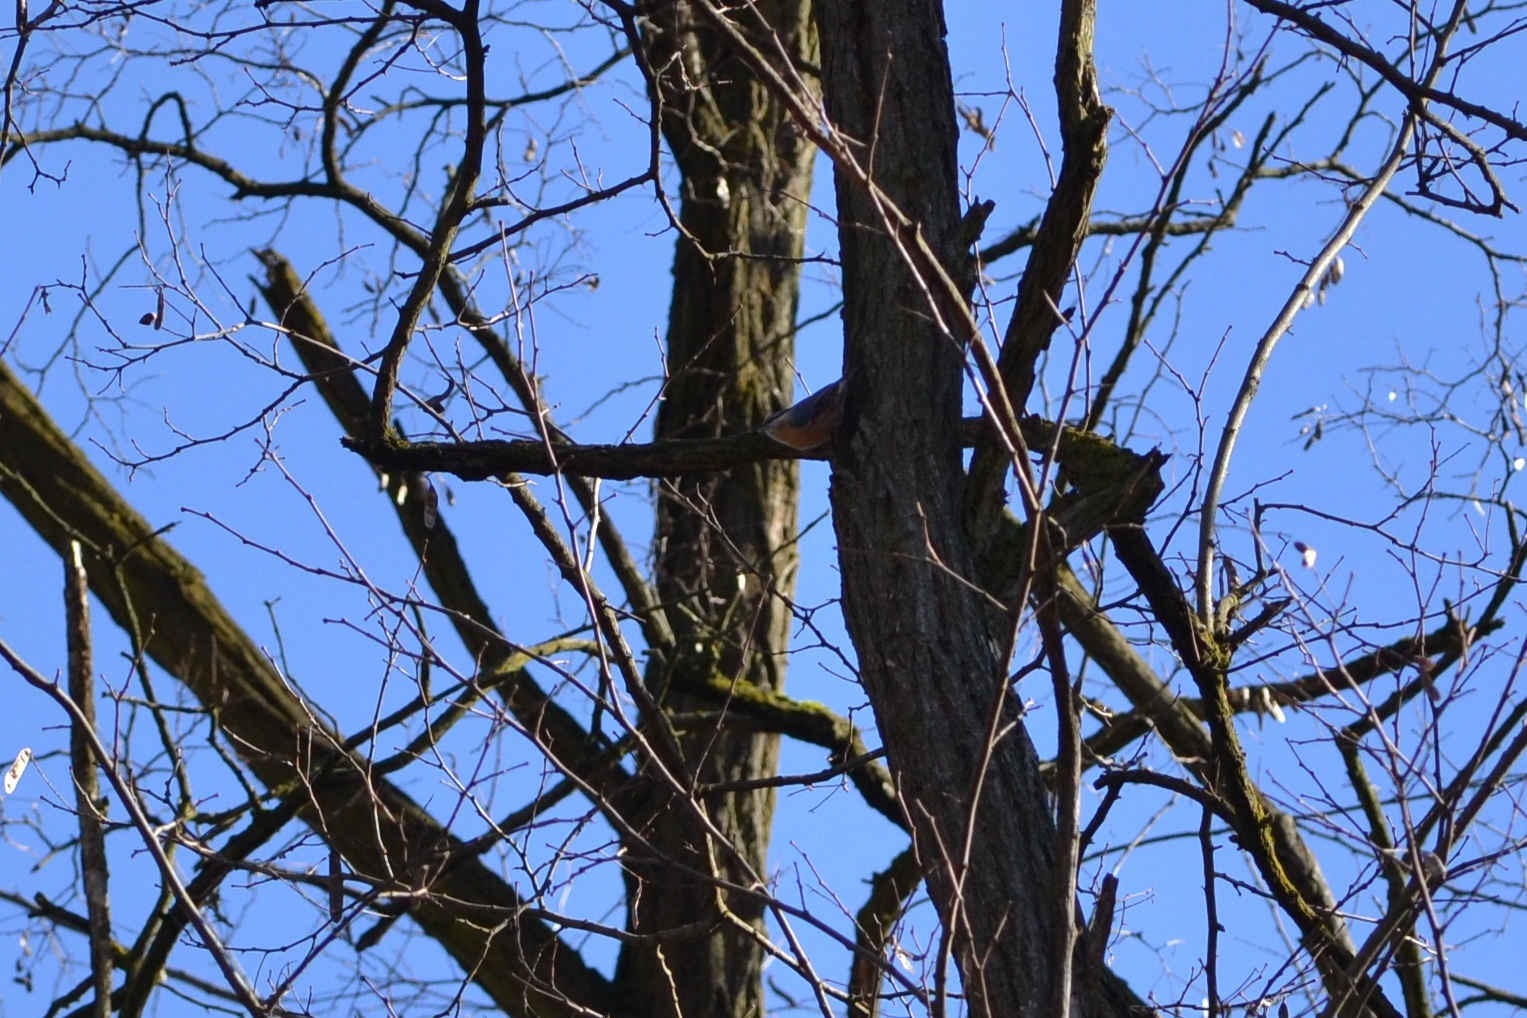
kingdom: Animalia
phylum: Chordata
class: Aves
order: Passeriformes
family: Sittidae
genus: Sitta
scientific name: Sitta europaea
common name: Eurasian nuthatch
